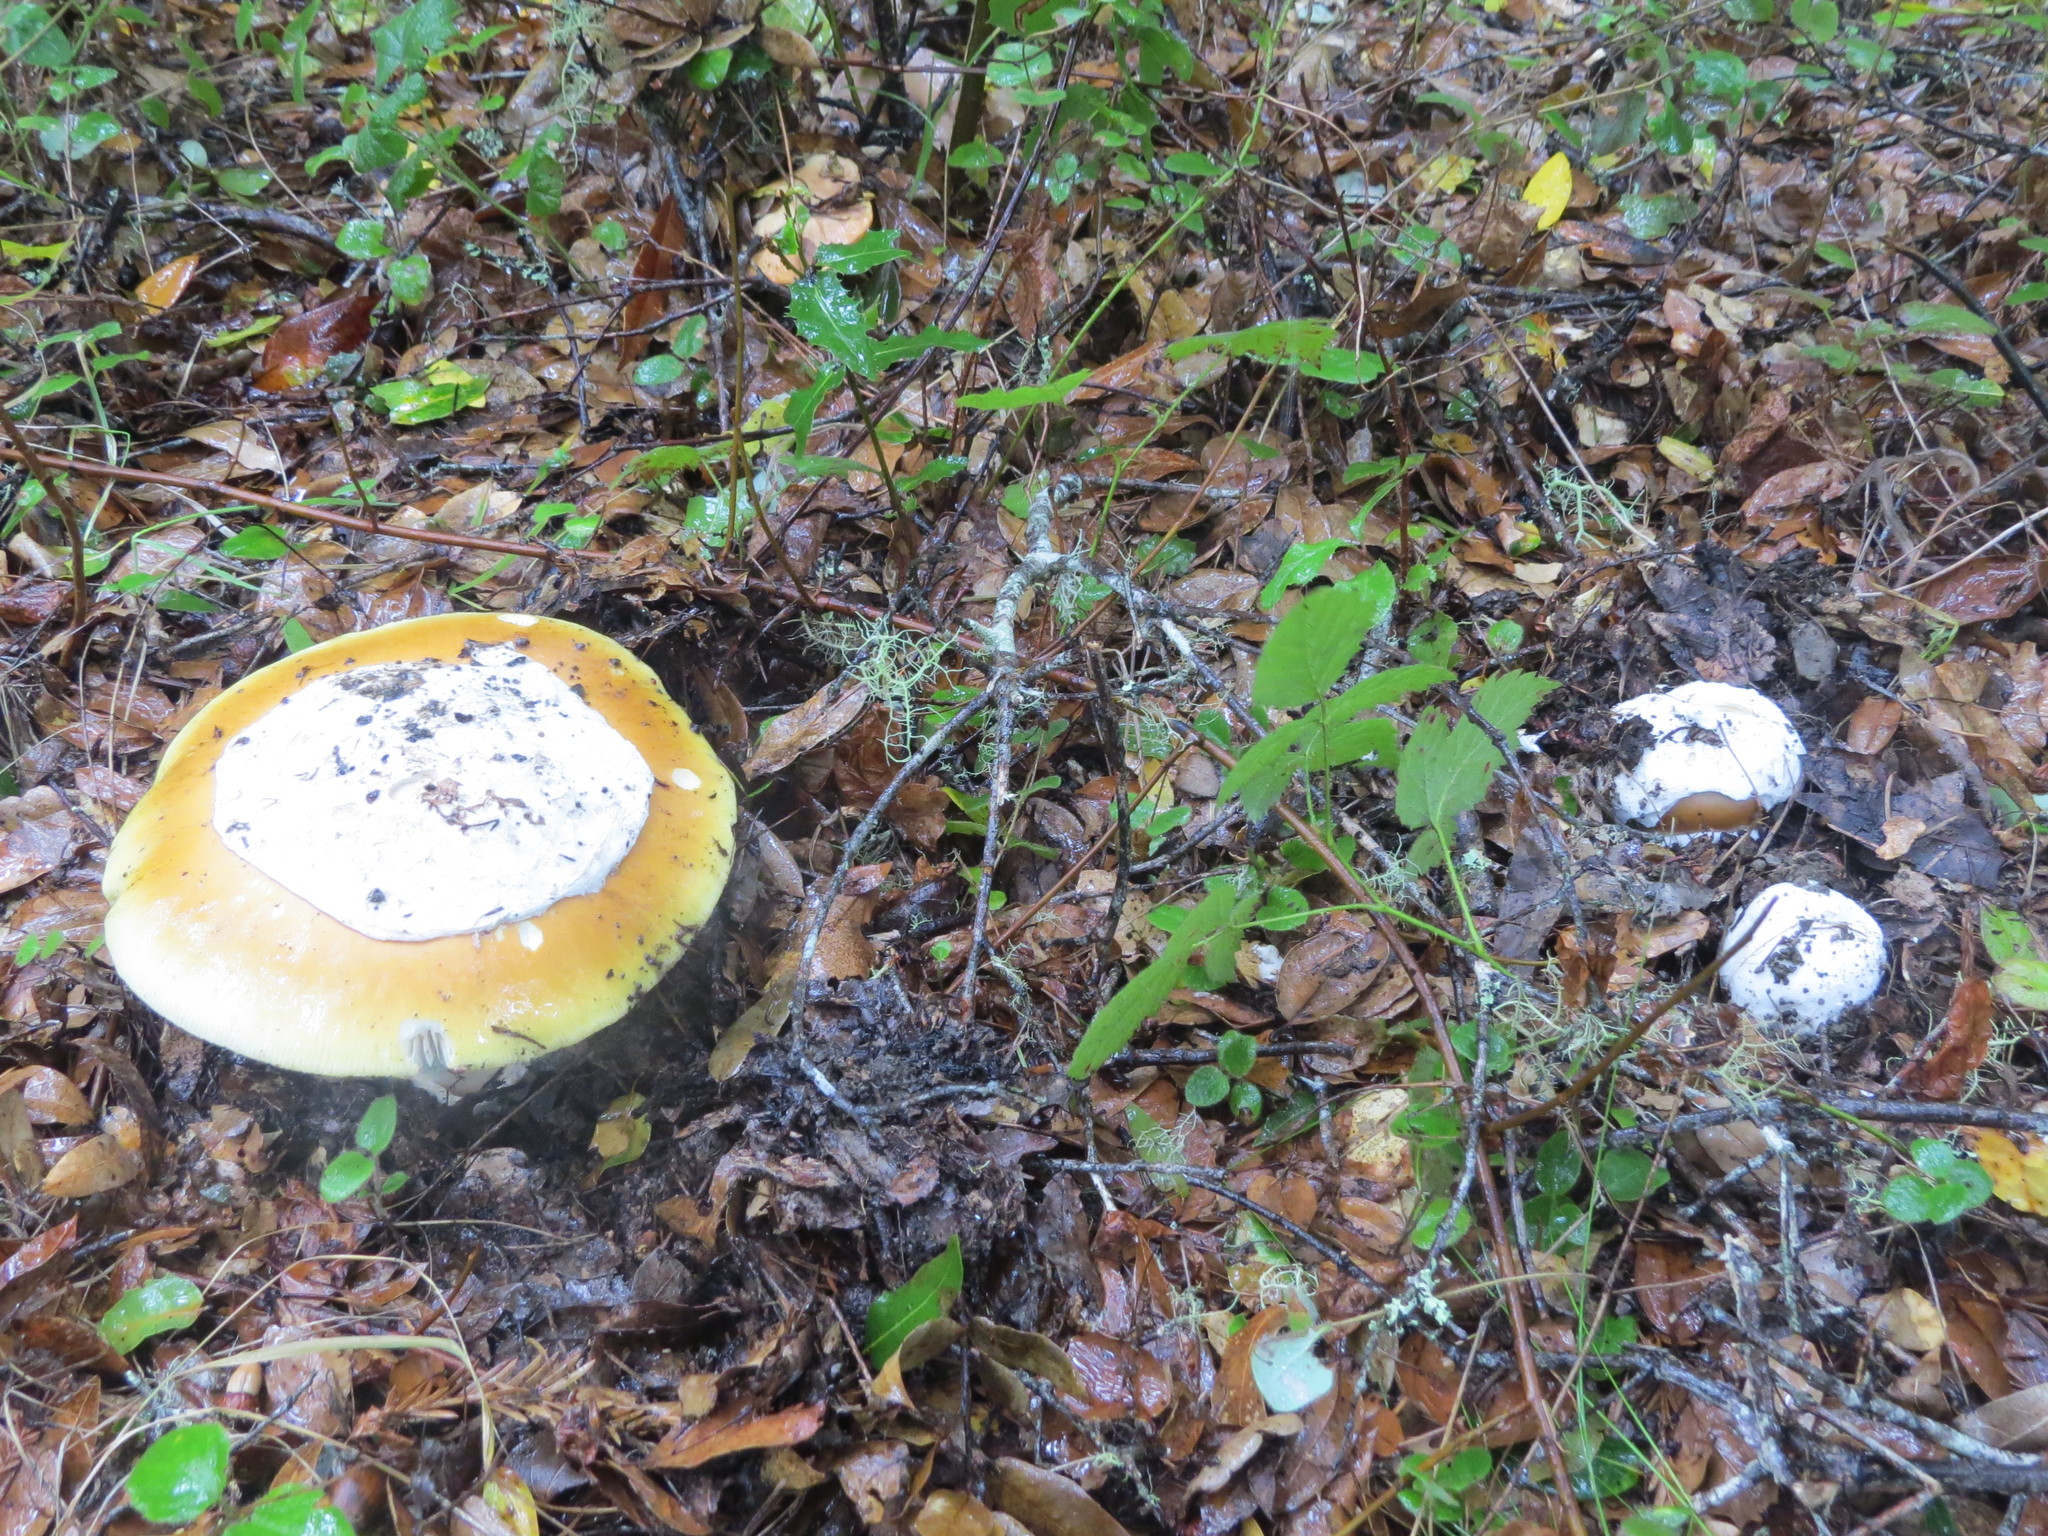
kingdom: Fungi
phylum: Basidiomycota
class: Agaricomycetes
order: Agaricales
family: Amanitaceae
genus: Amanita
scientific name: Amanita calyptroderma
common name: Coccora
